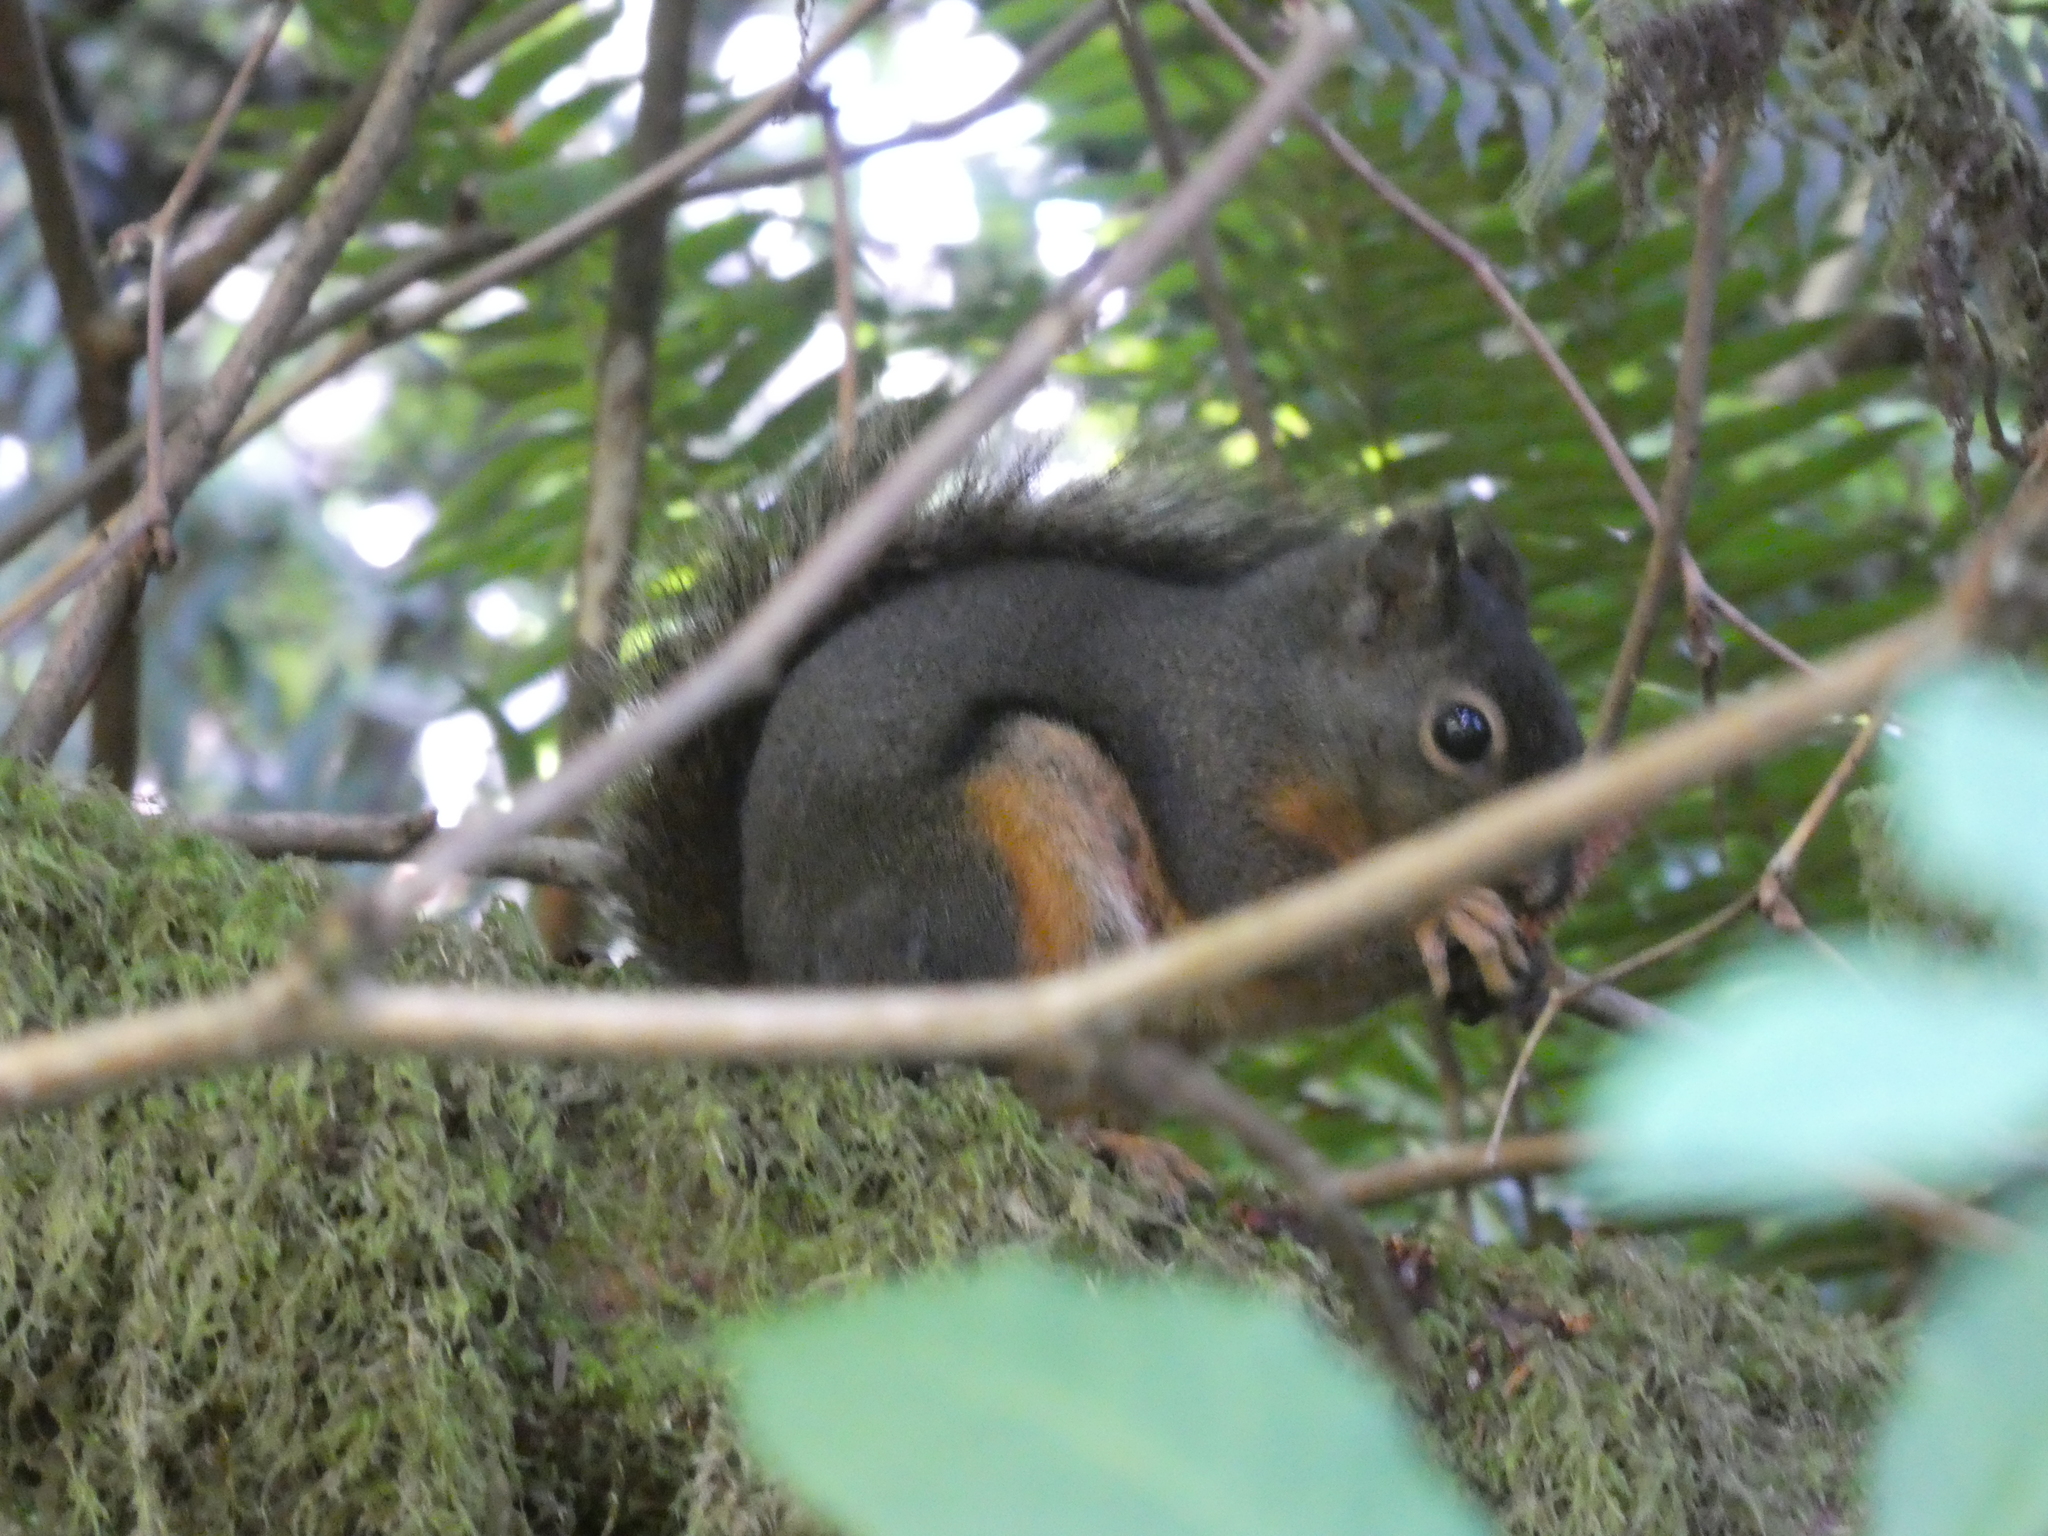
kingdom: Animalia
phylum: Chordata
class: Mammalia
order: Rodentia
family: Sciuridae
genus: Tamiasciurus
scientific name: Tamiasciurus douglasii
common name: Douglas's squirrel
